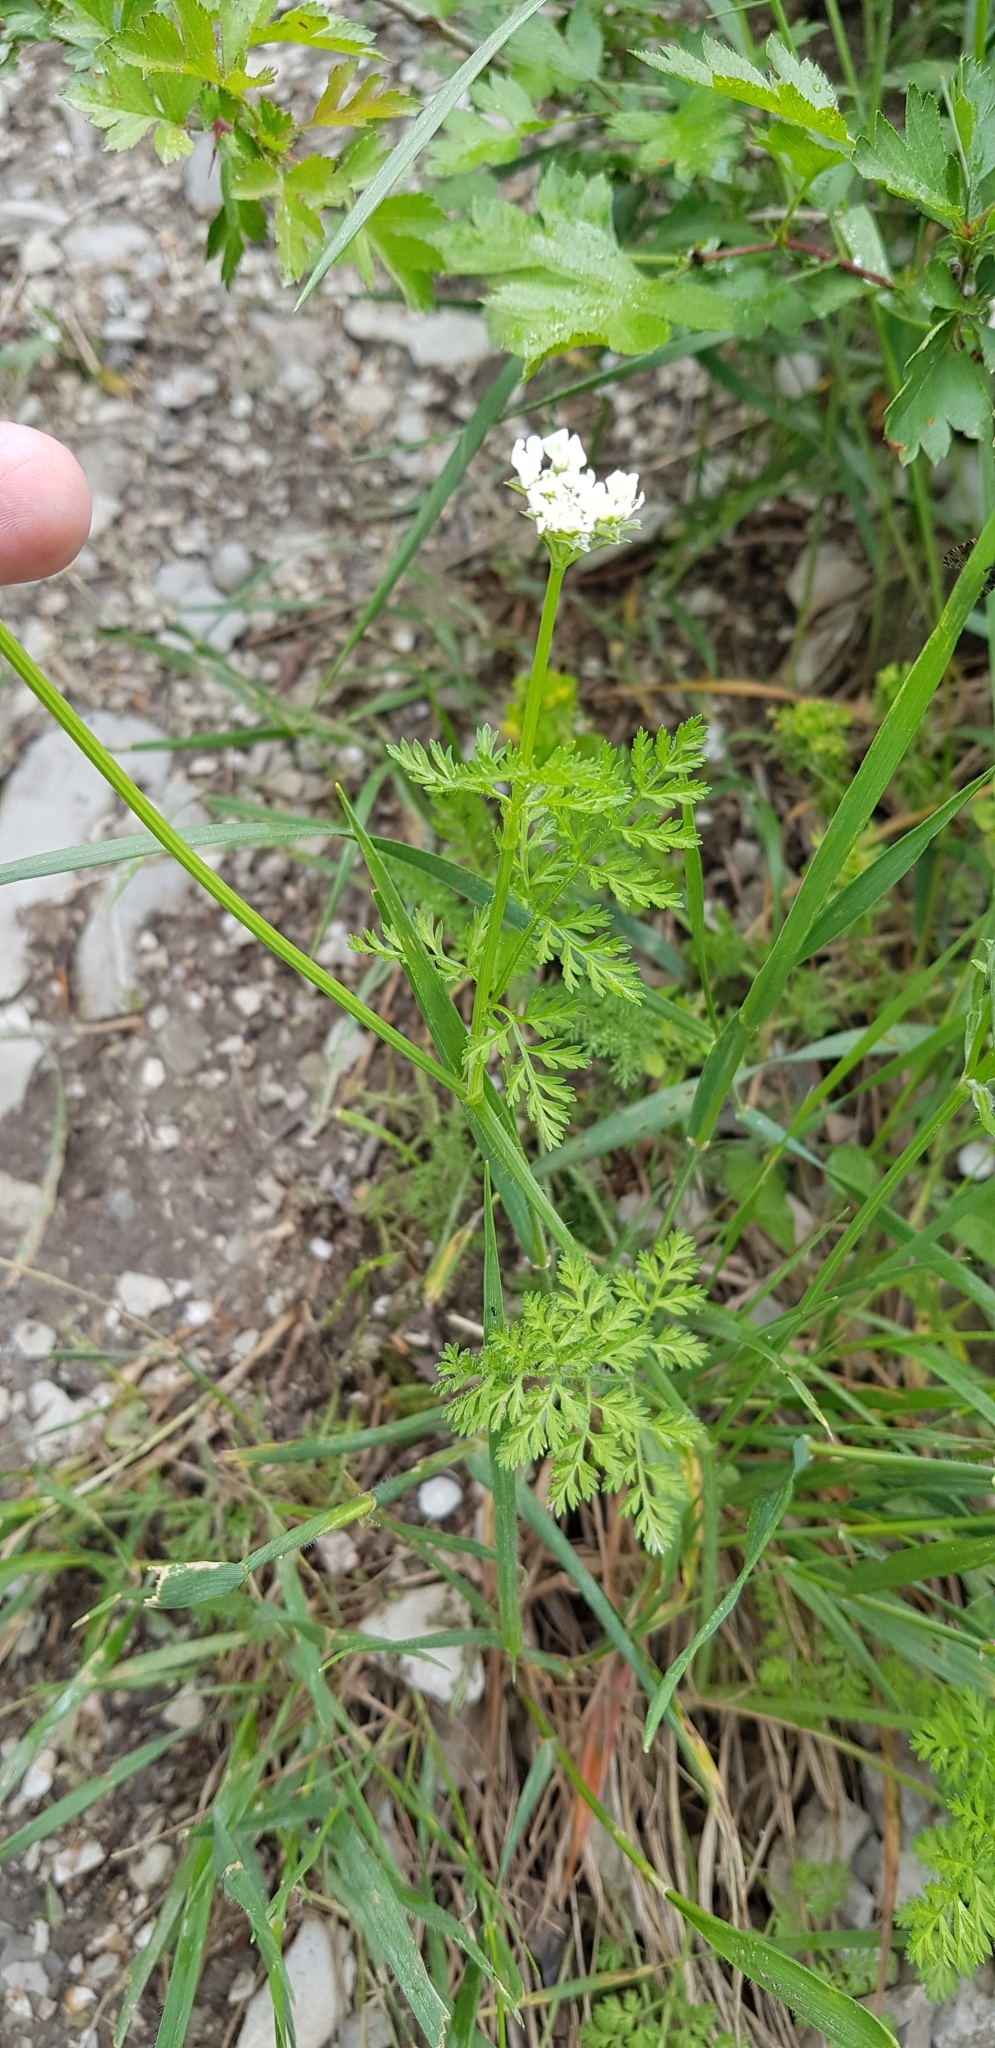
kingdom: Plantae
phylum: Tracheophyta
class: Magnoliopsida
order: Apiales
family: Apiaceae
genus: Orlaya
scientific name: Orlaya daucoides
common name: Flat-fruit orlaya
